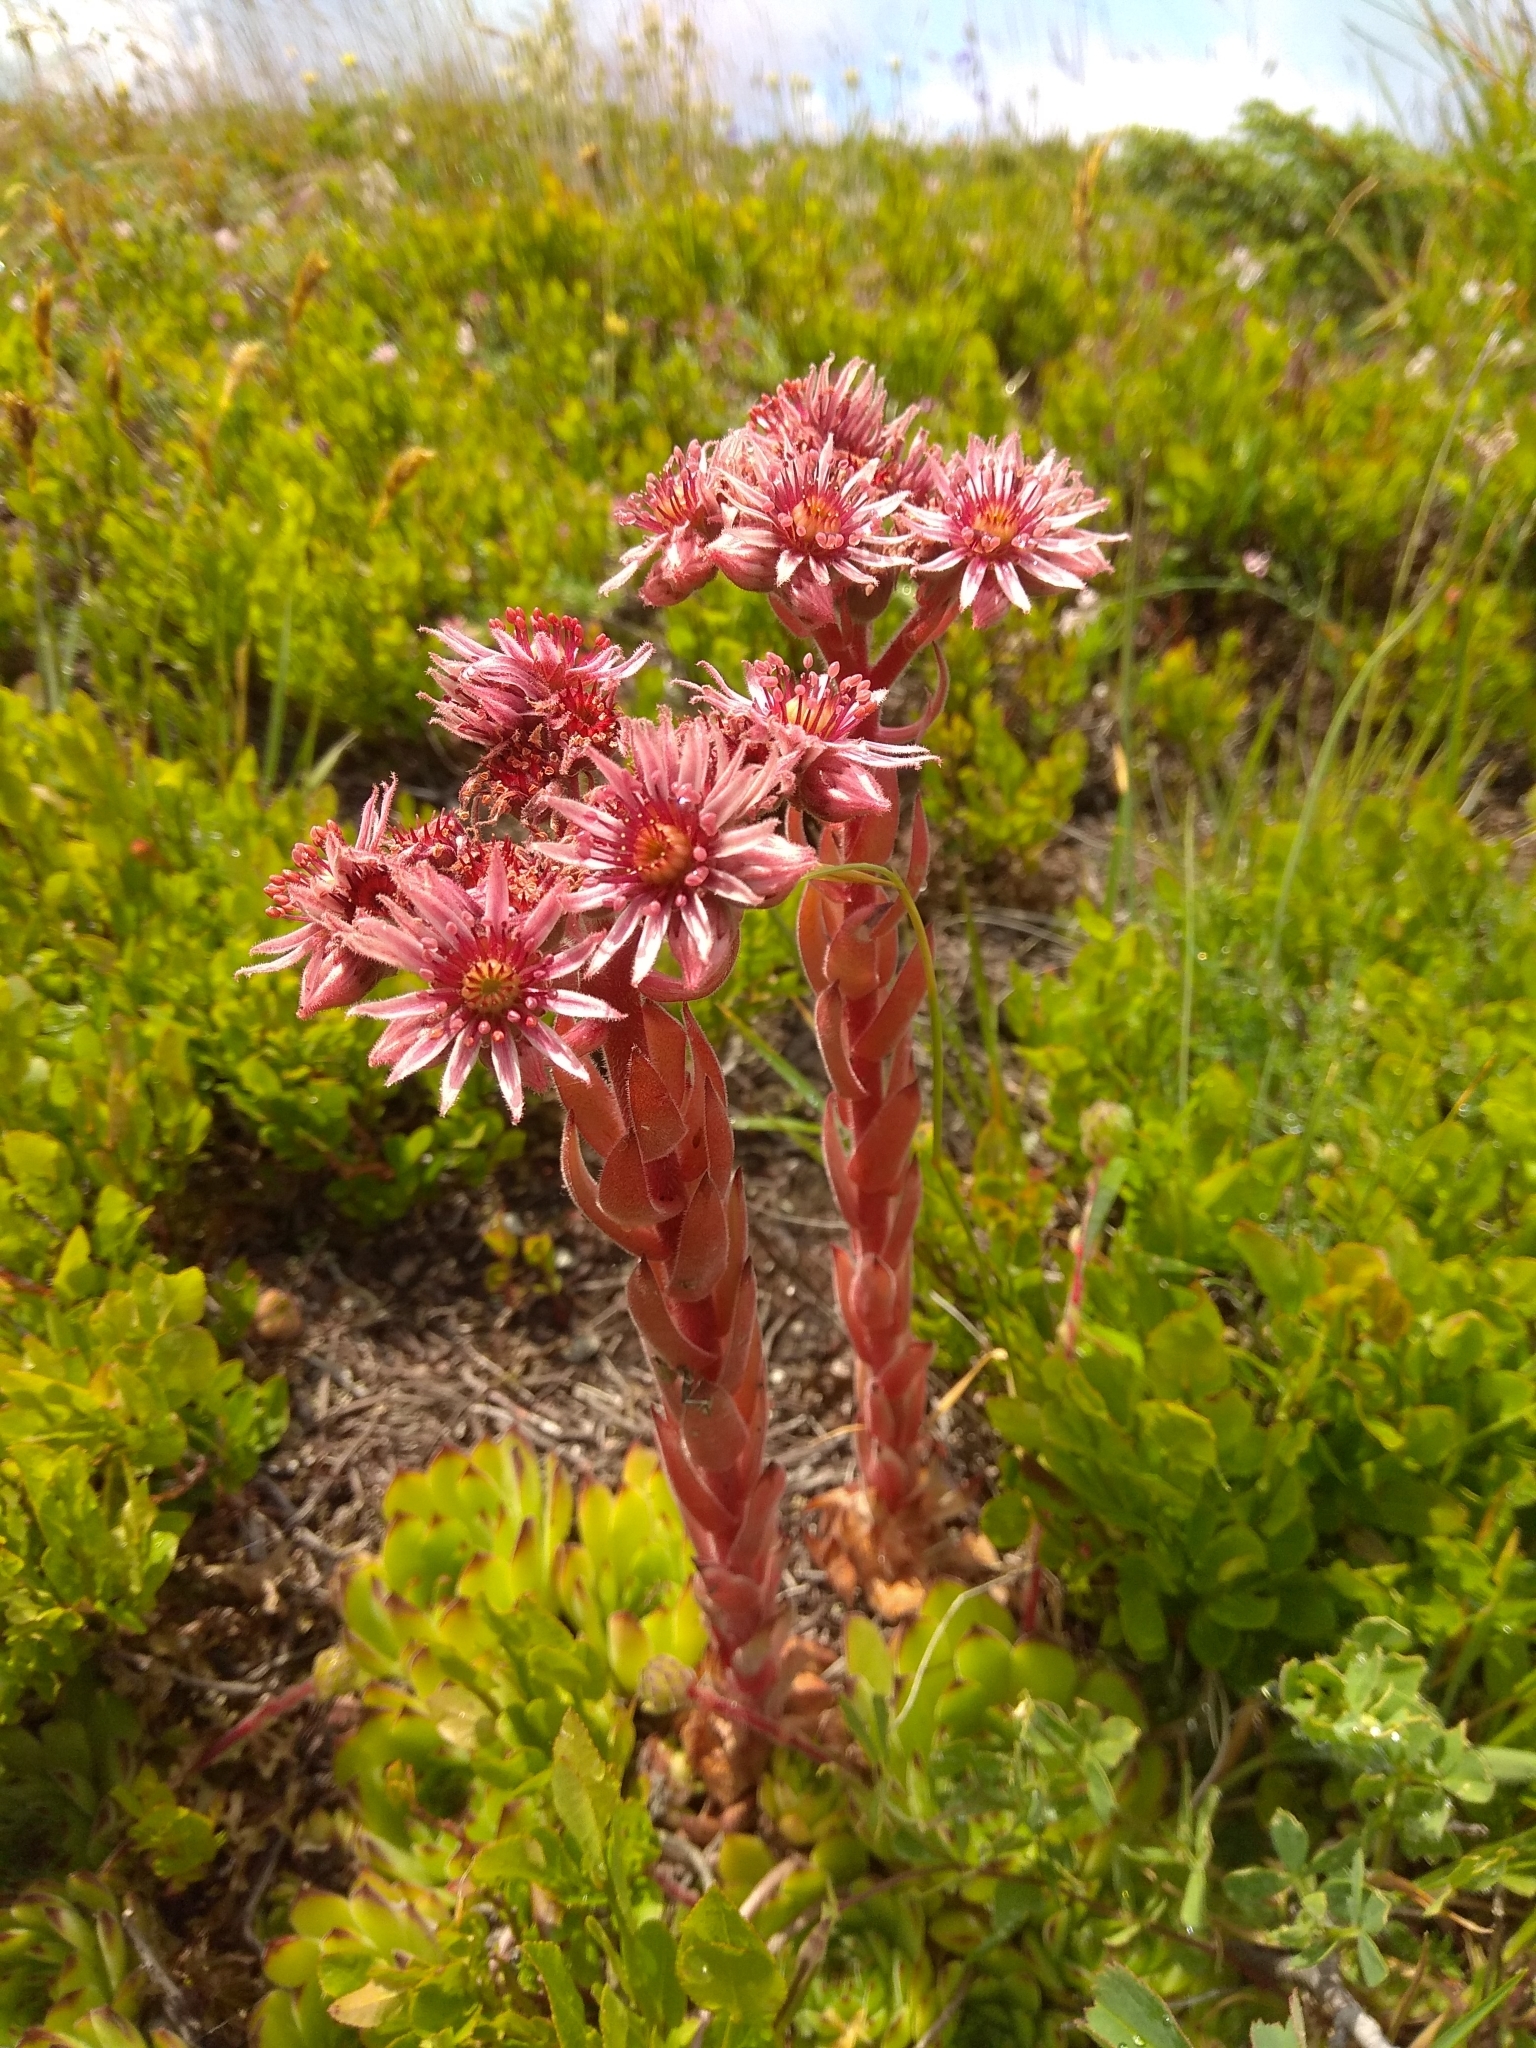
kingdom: Plantae
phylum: Tracheophyta
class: Magnoliopsida
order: Saxifragales
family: Crassulaceae
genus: Sempervivum
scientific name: Sempervivum marmoreum
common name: Houseleek
